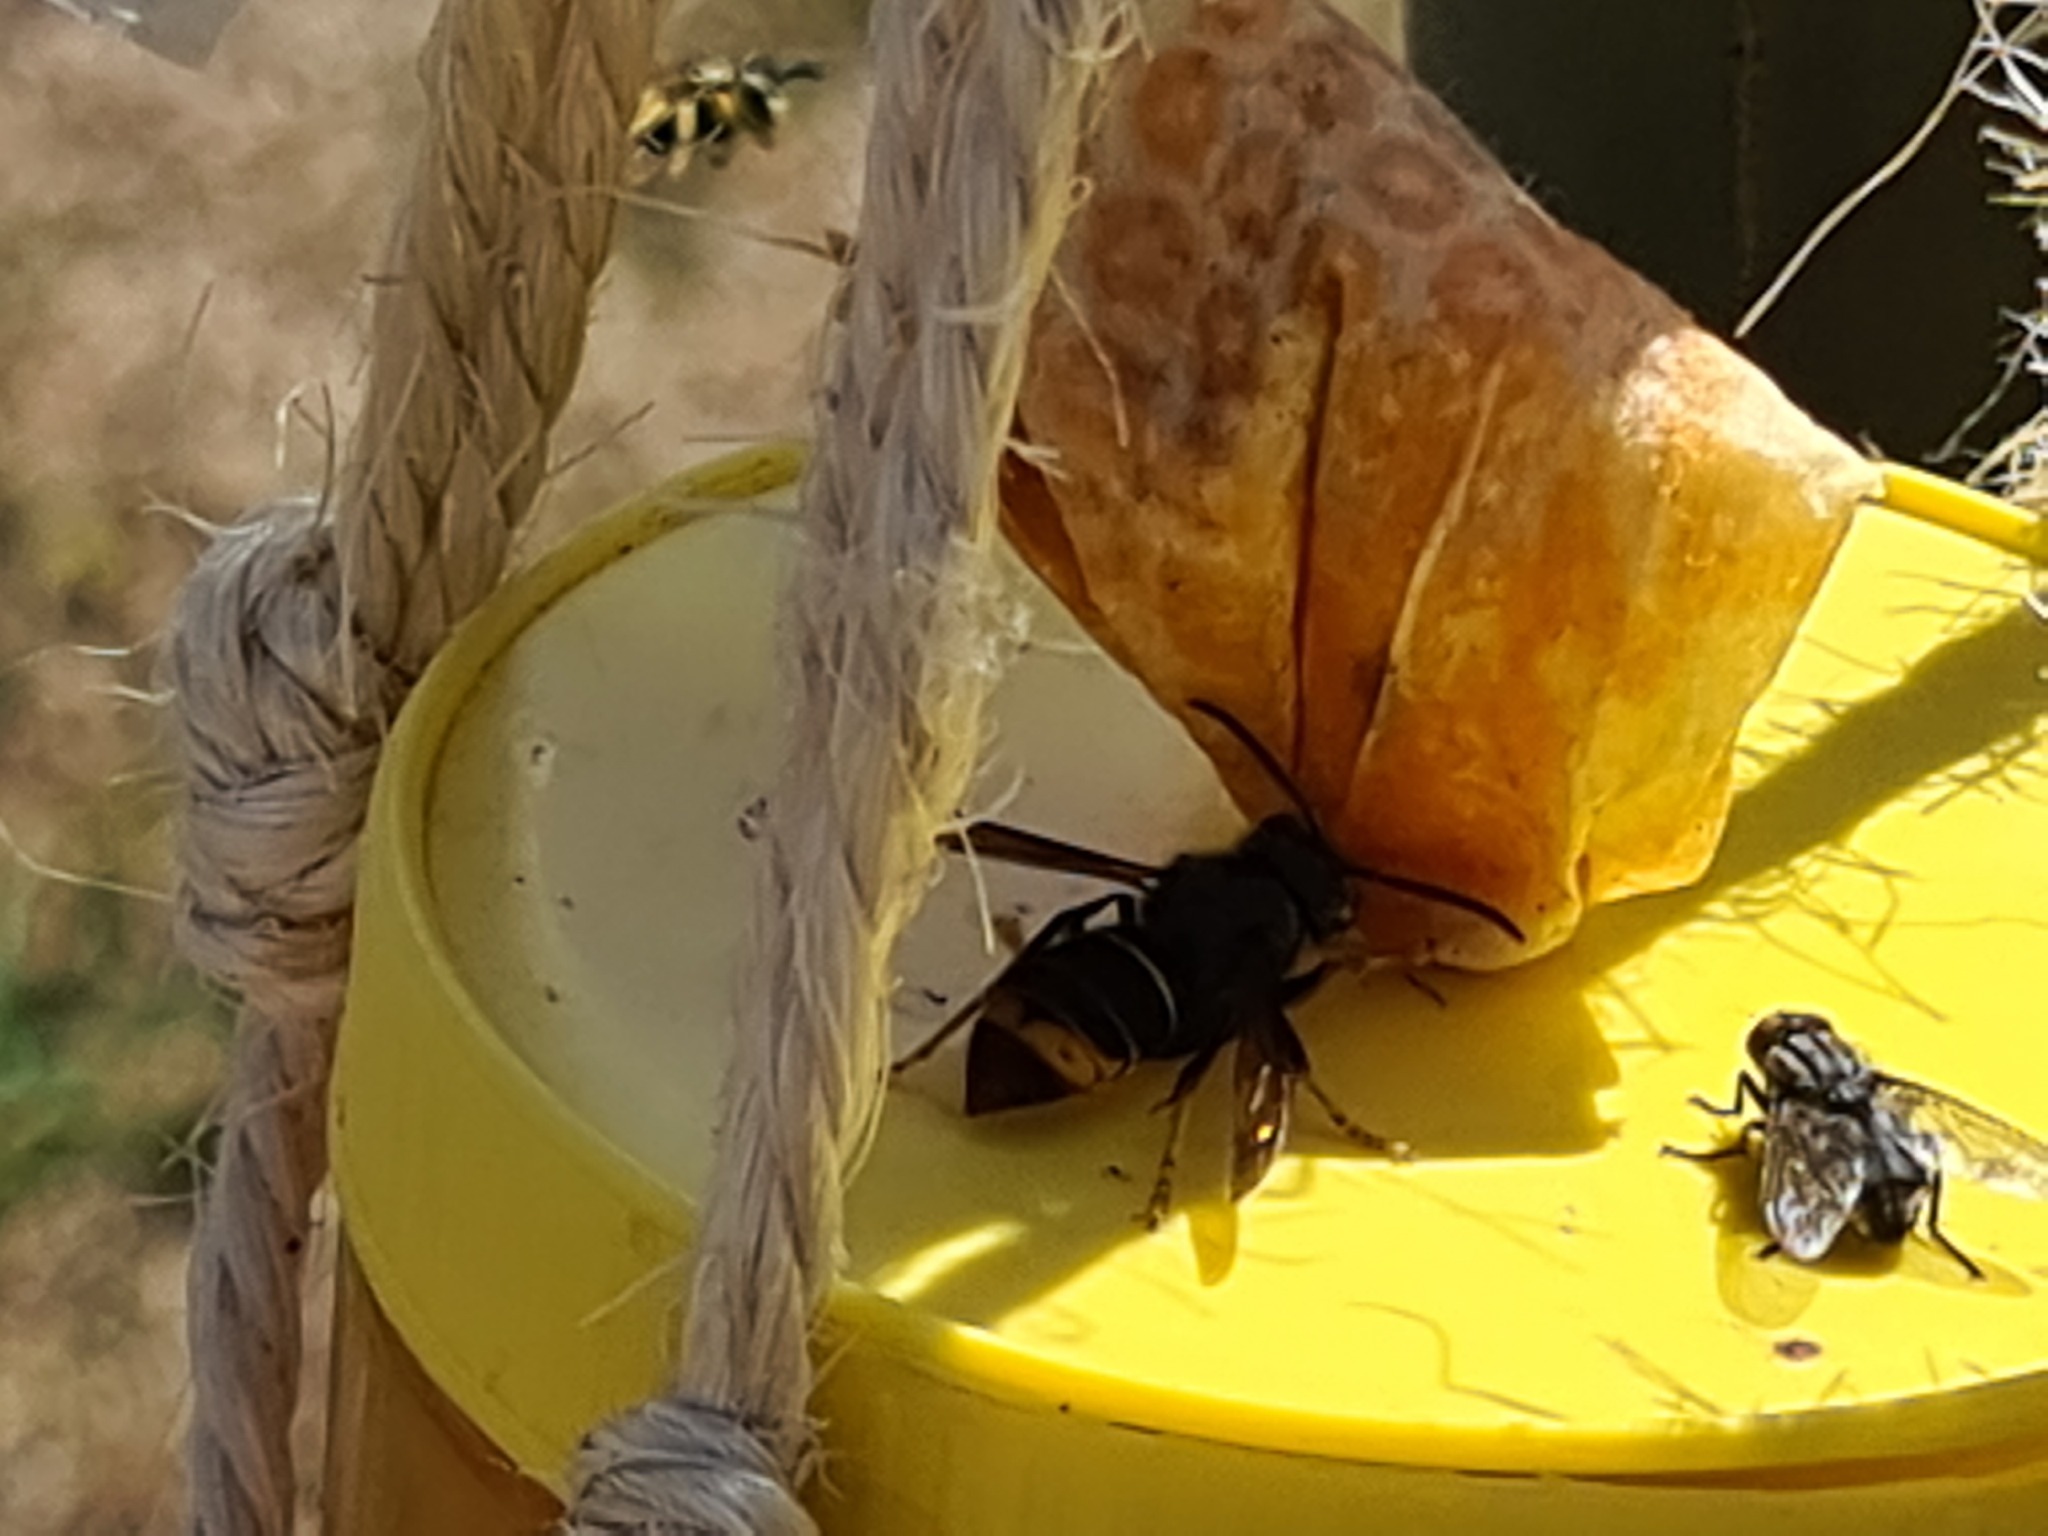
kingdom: Animalia
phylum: Arthropoda
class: Insecta
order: Hymenoptera
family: Vespidae
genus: Vespa
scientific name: Vespa velutina
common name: Asian hornet
